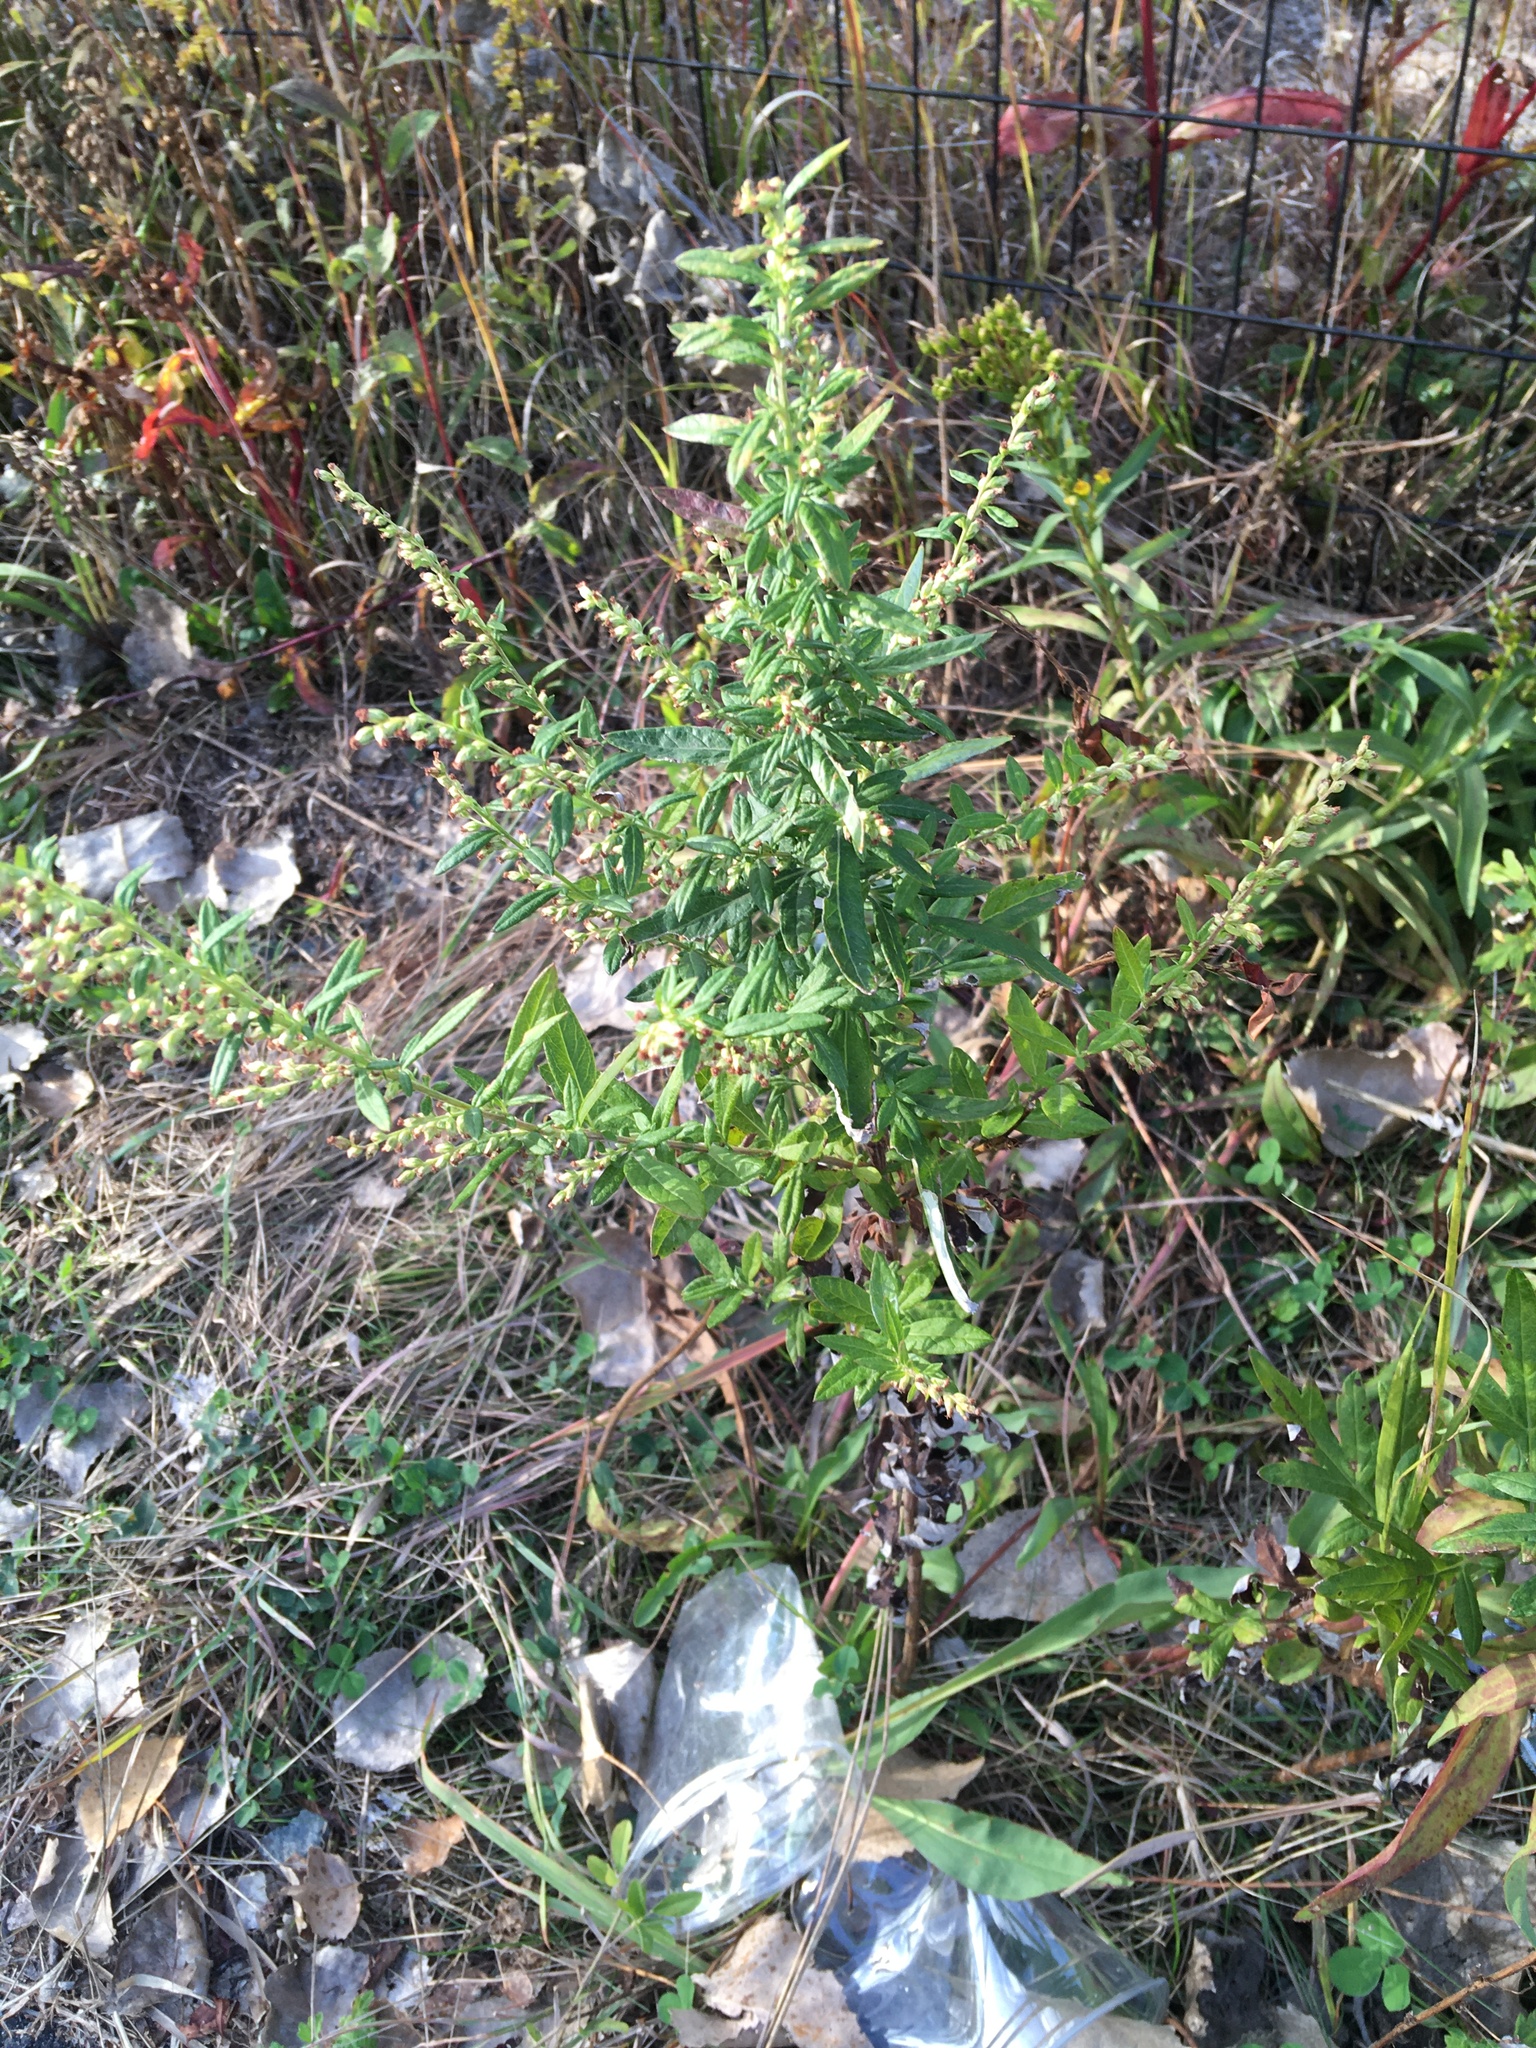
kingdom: Plantae
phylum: Tracheophyta
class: Magnoliopsida
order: Asterales
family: Asteraceae
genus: Artemisia
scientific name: Artemisia vulgaris
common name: Mugwort
